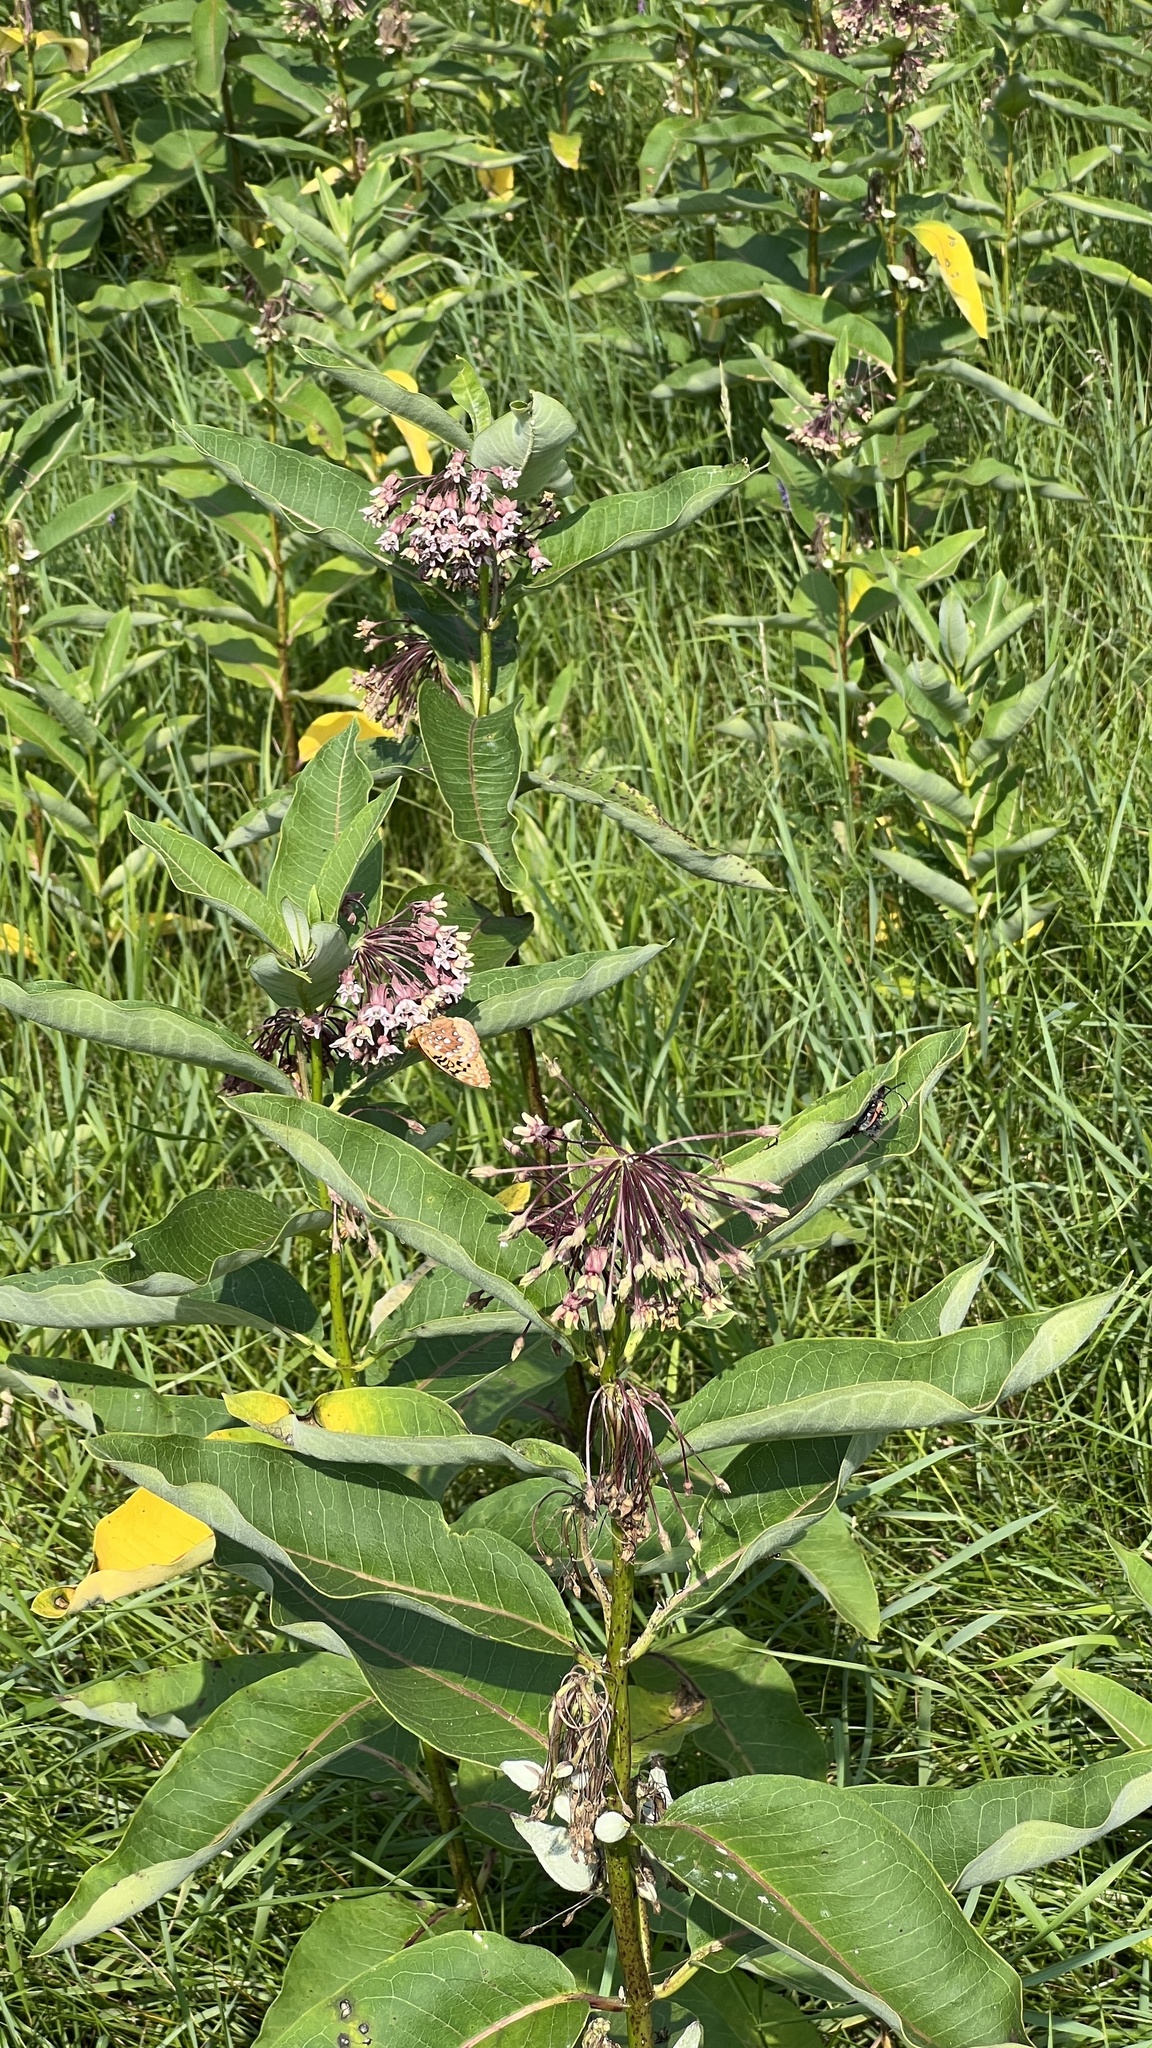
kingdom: Plantae
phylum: Tracheophyta
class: Magnoliopsida
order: Gentianales
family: Apocynaceae
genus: Asclepias
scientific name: Asclepias syriaca
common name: Common milkweed
